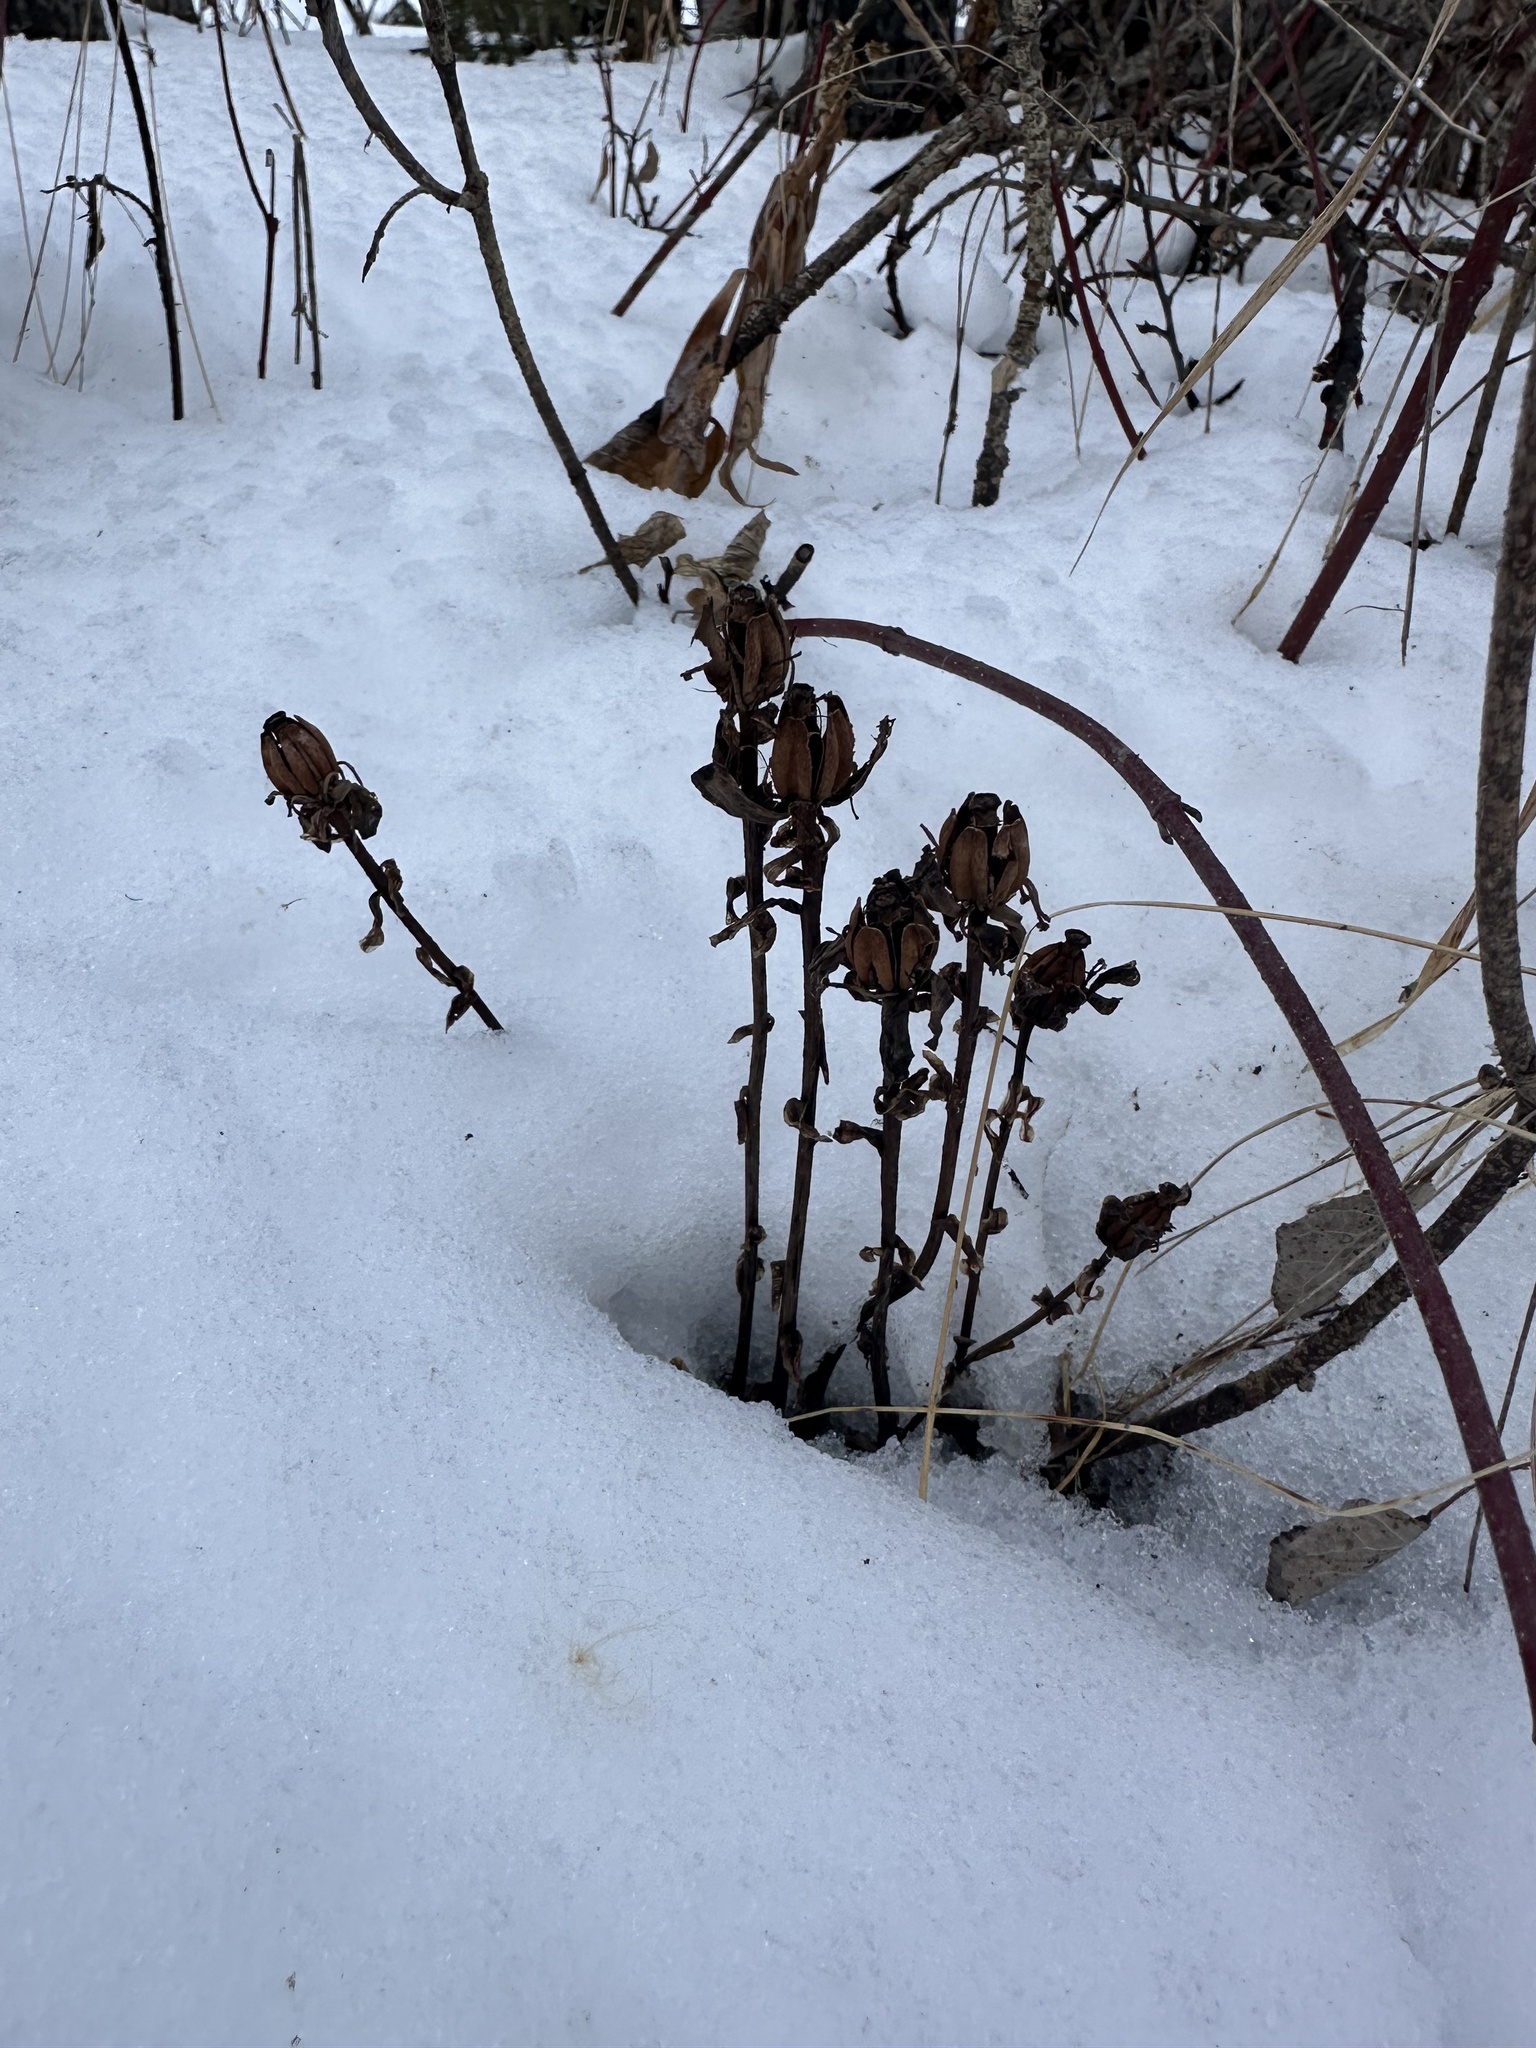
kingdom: Plantae
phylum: Tracheophyta
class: Magnoliopsida
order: Ericales
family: Ericaceae
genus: Monotropa
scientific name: Monotropa uniflora
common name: Convulsion root
